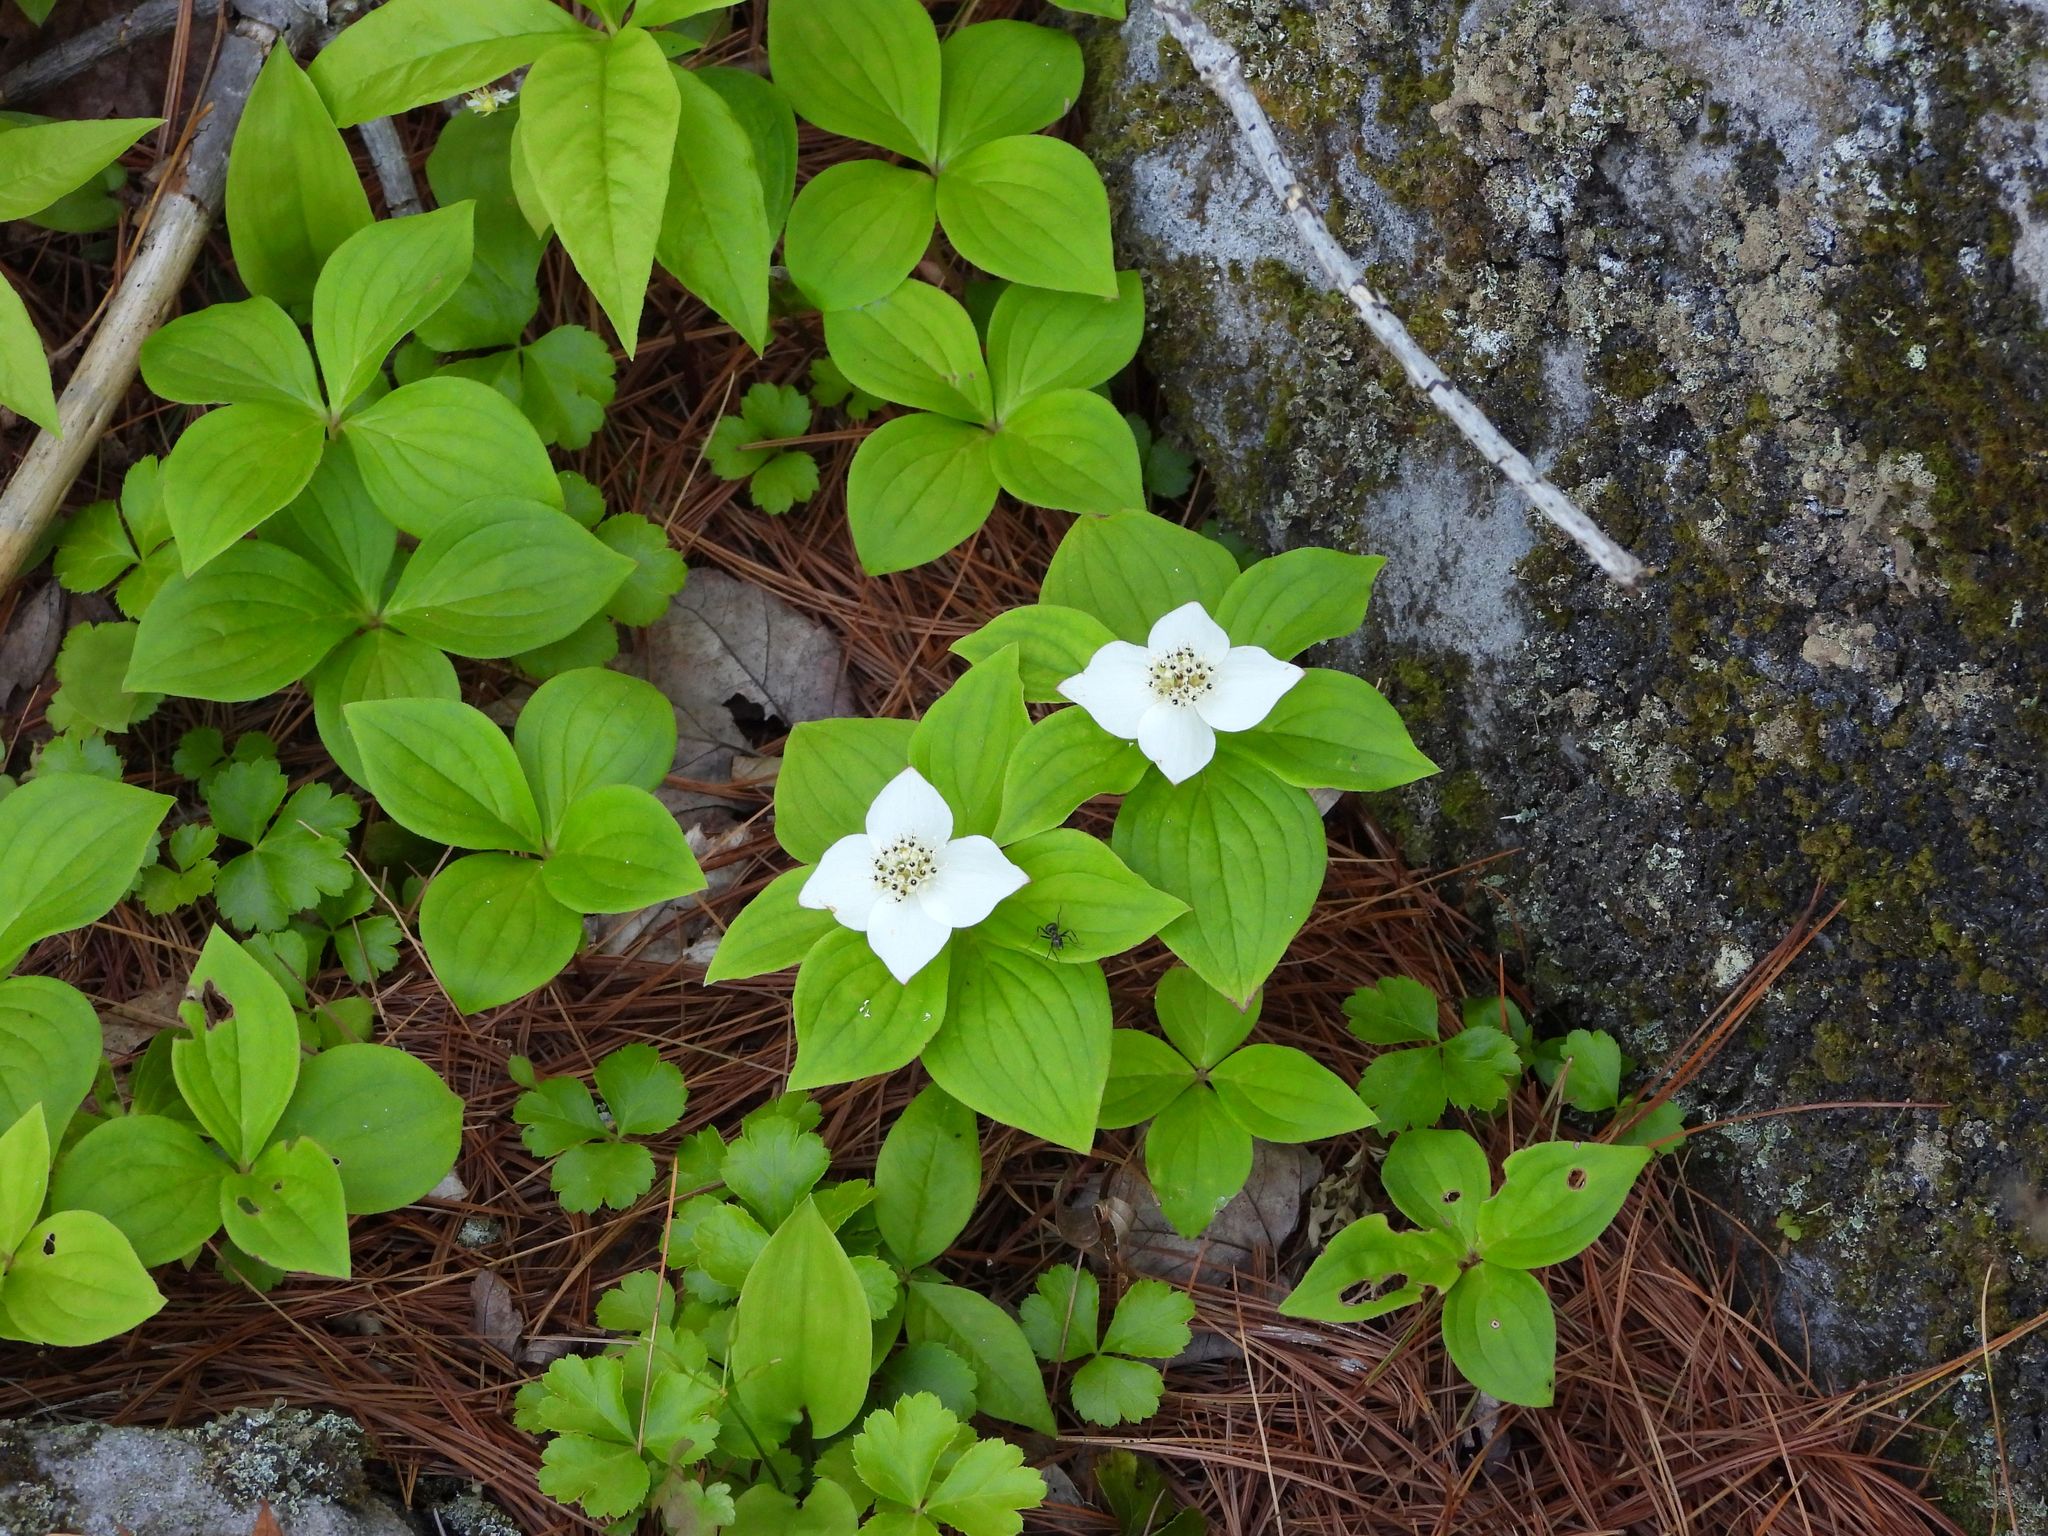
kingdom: Plantae
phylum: Tracheophyta
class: Magnoliopsida
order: Cornales
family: Cornaceae
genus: Cornus
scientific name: Cornus canadensis
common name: Creeping dogwood
